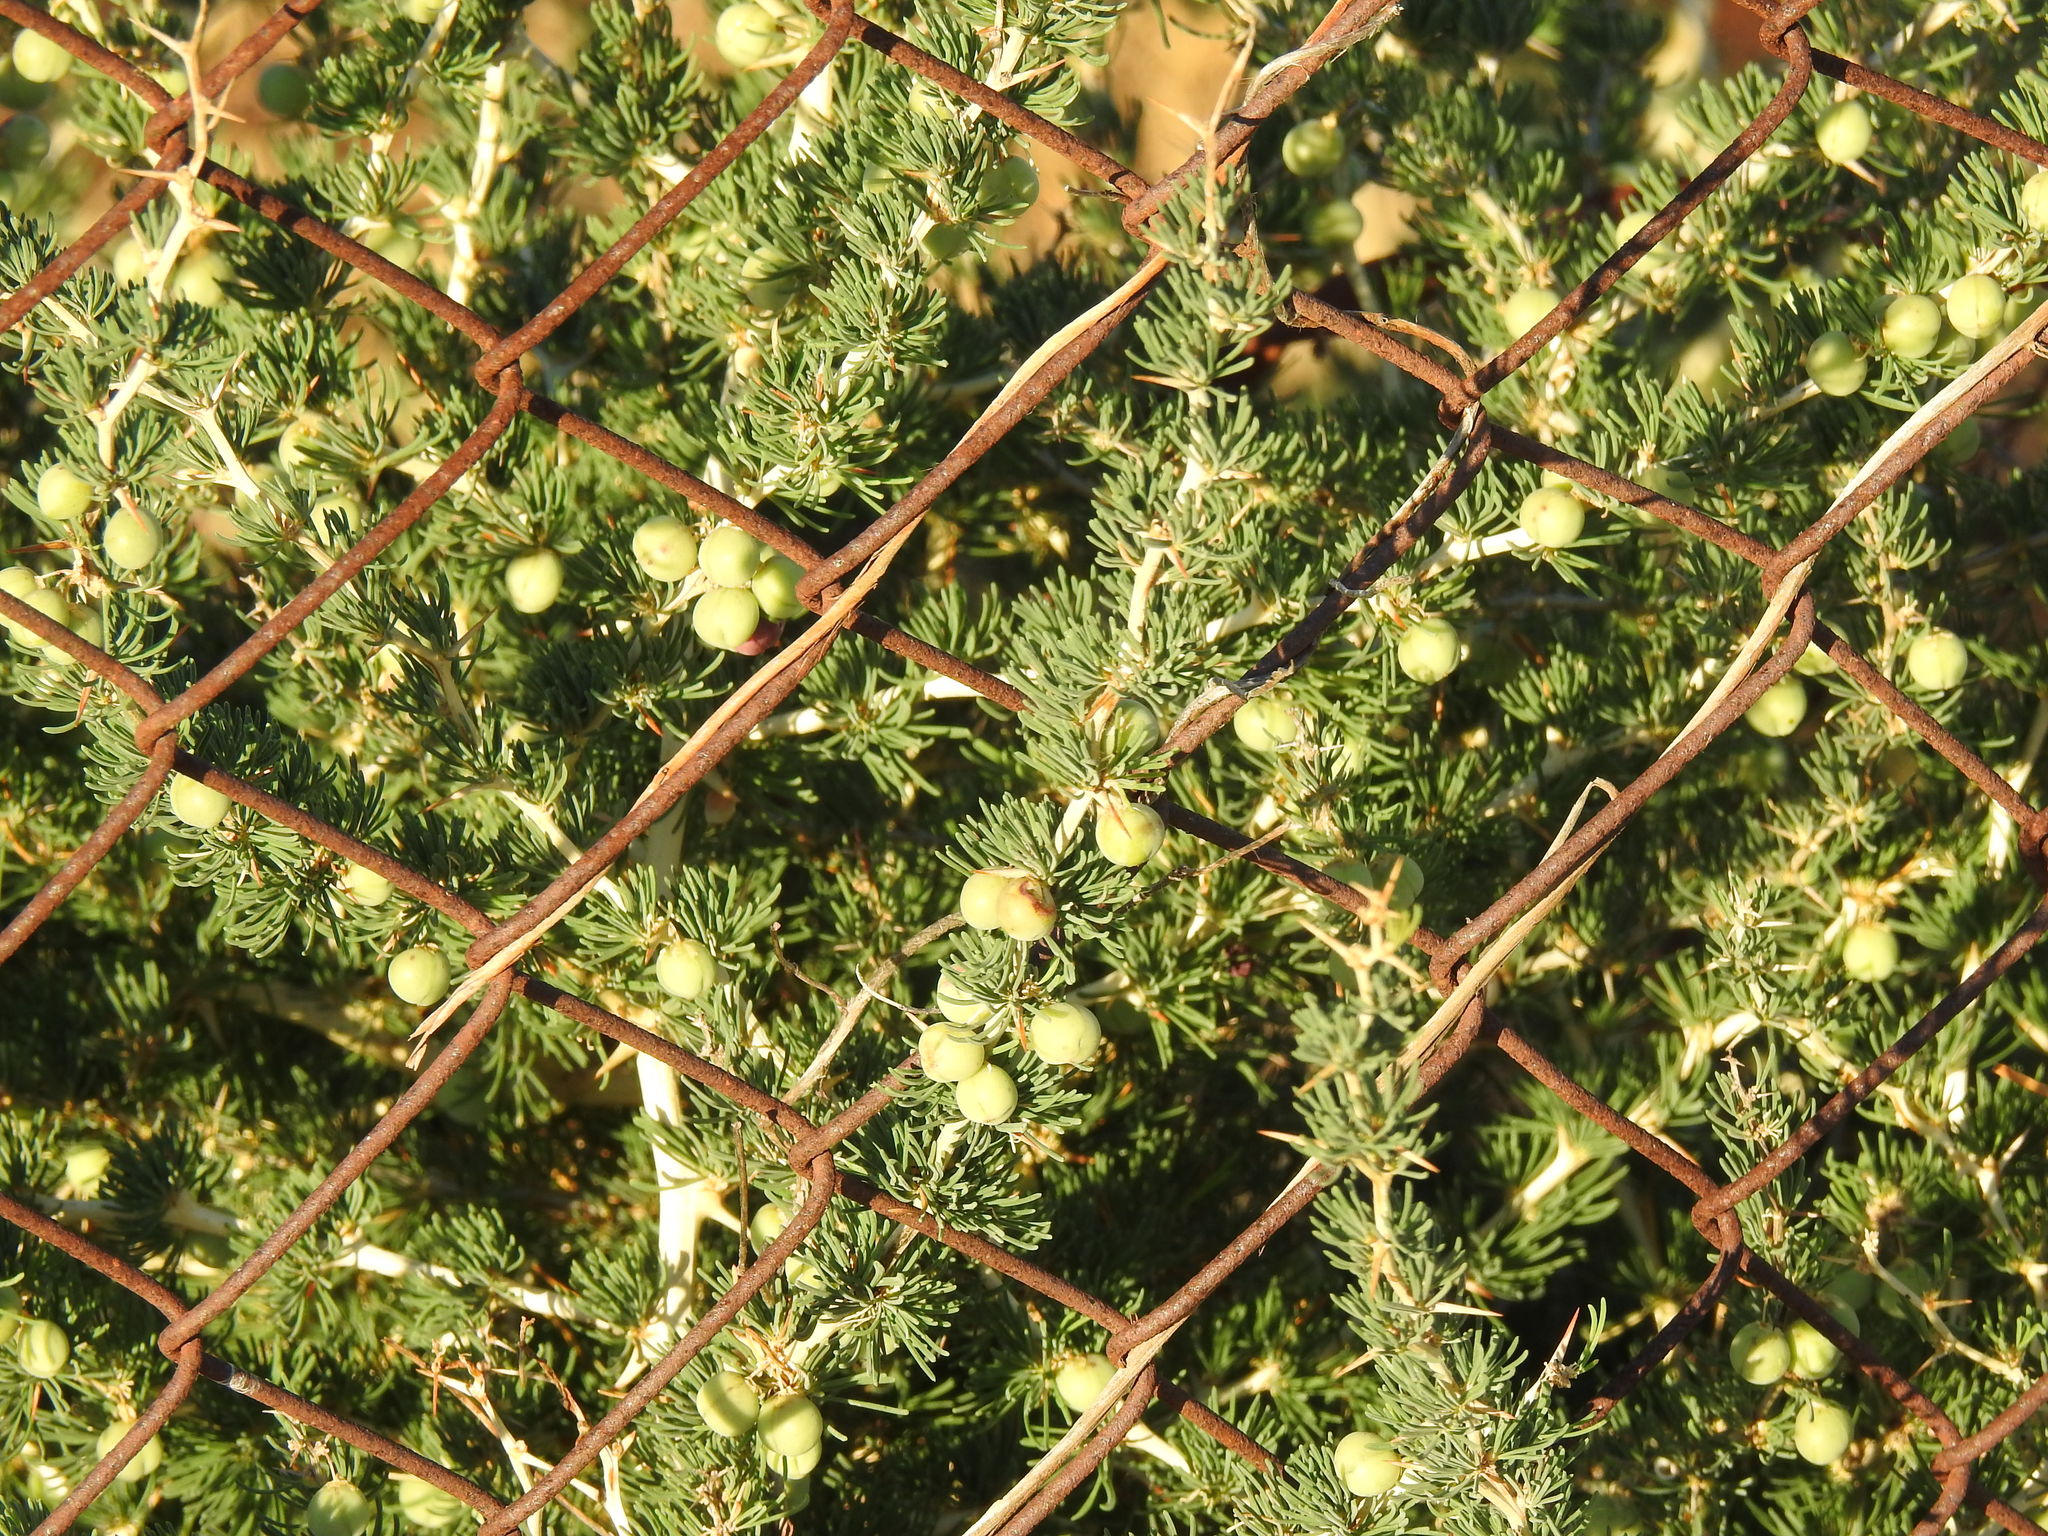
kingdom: Plantae
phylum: Tracheophyta
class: Liliopsida
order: Asparagales
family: Asparagaceae
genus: Asparagus
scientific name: Asparagus albus
